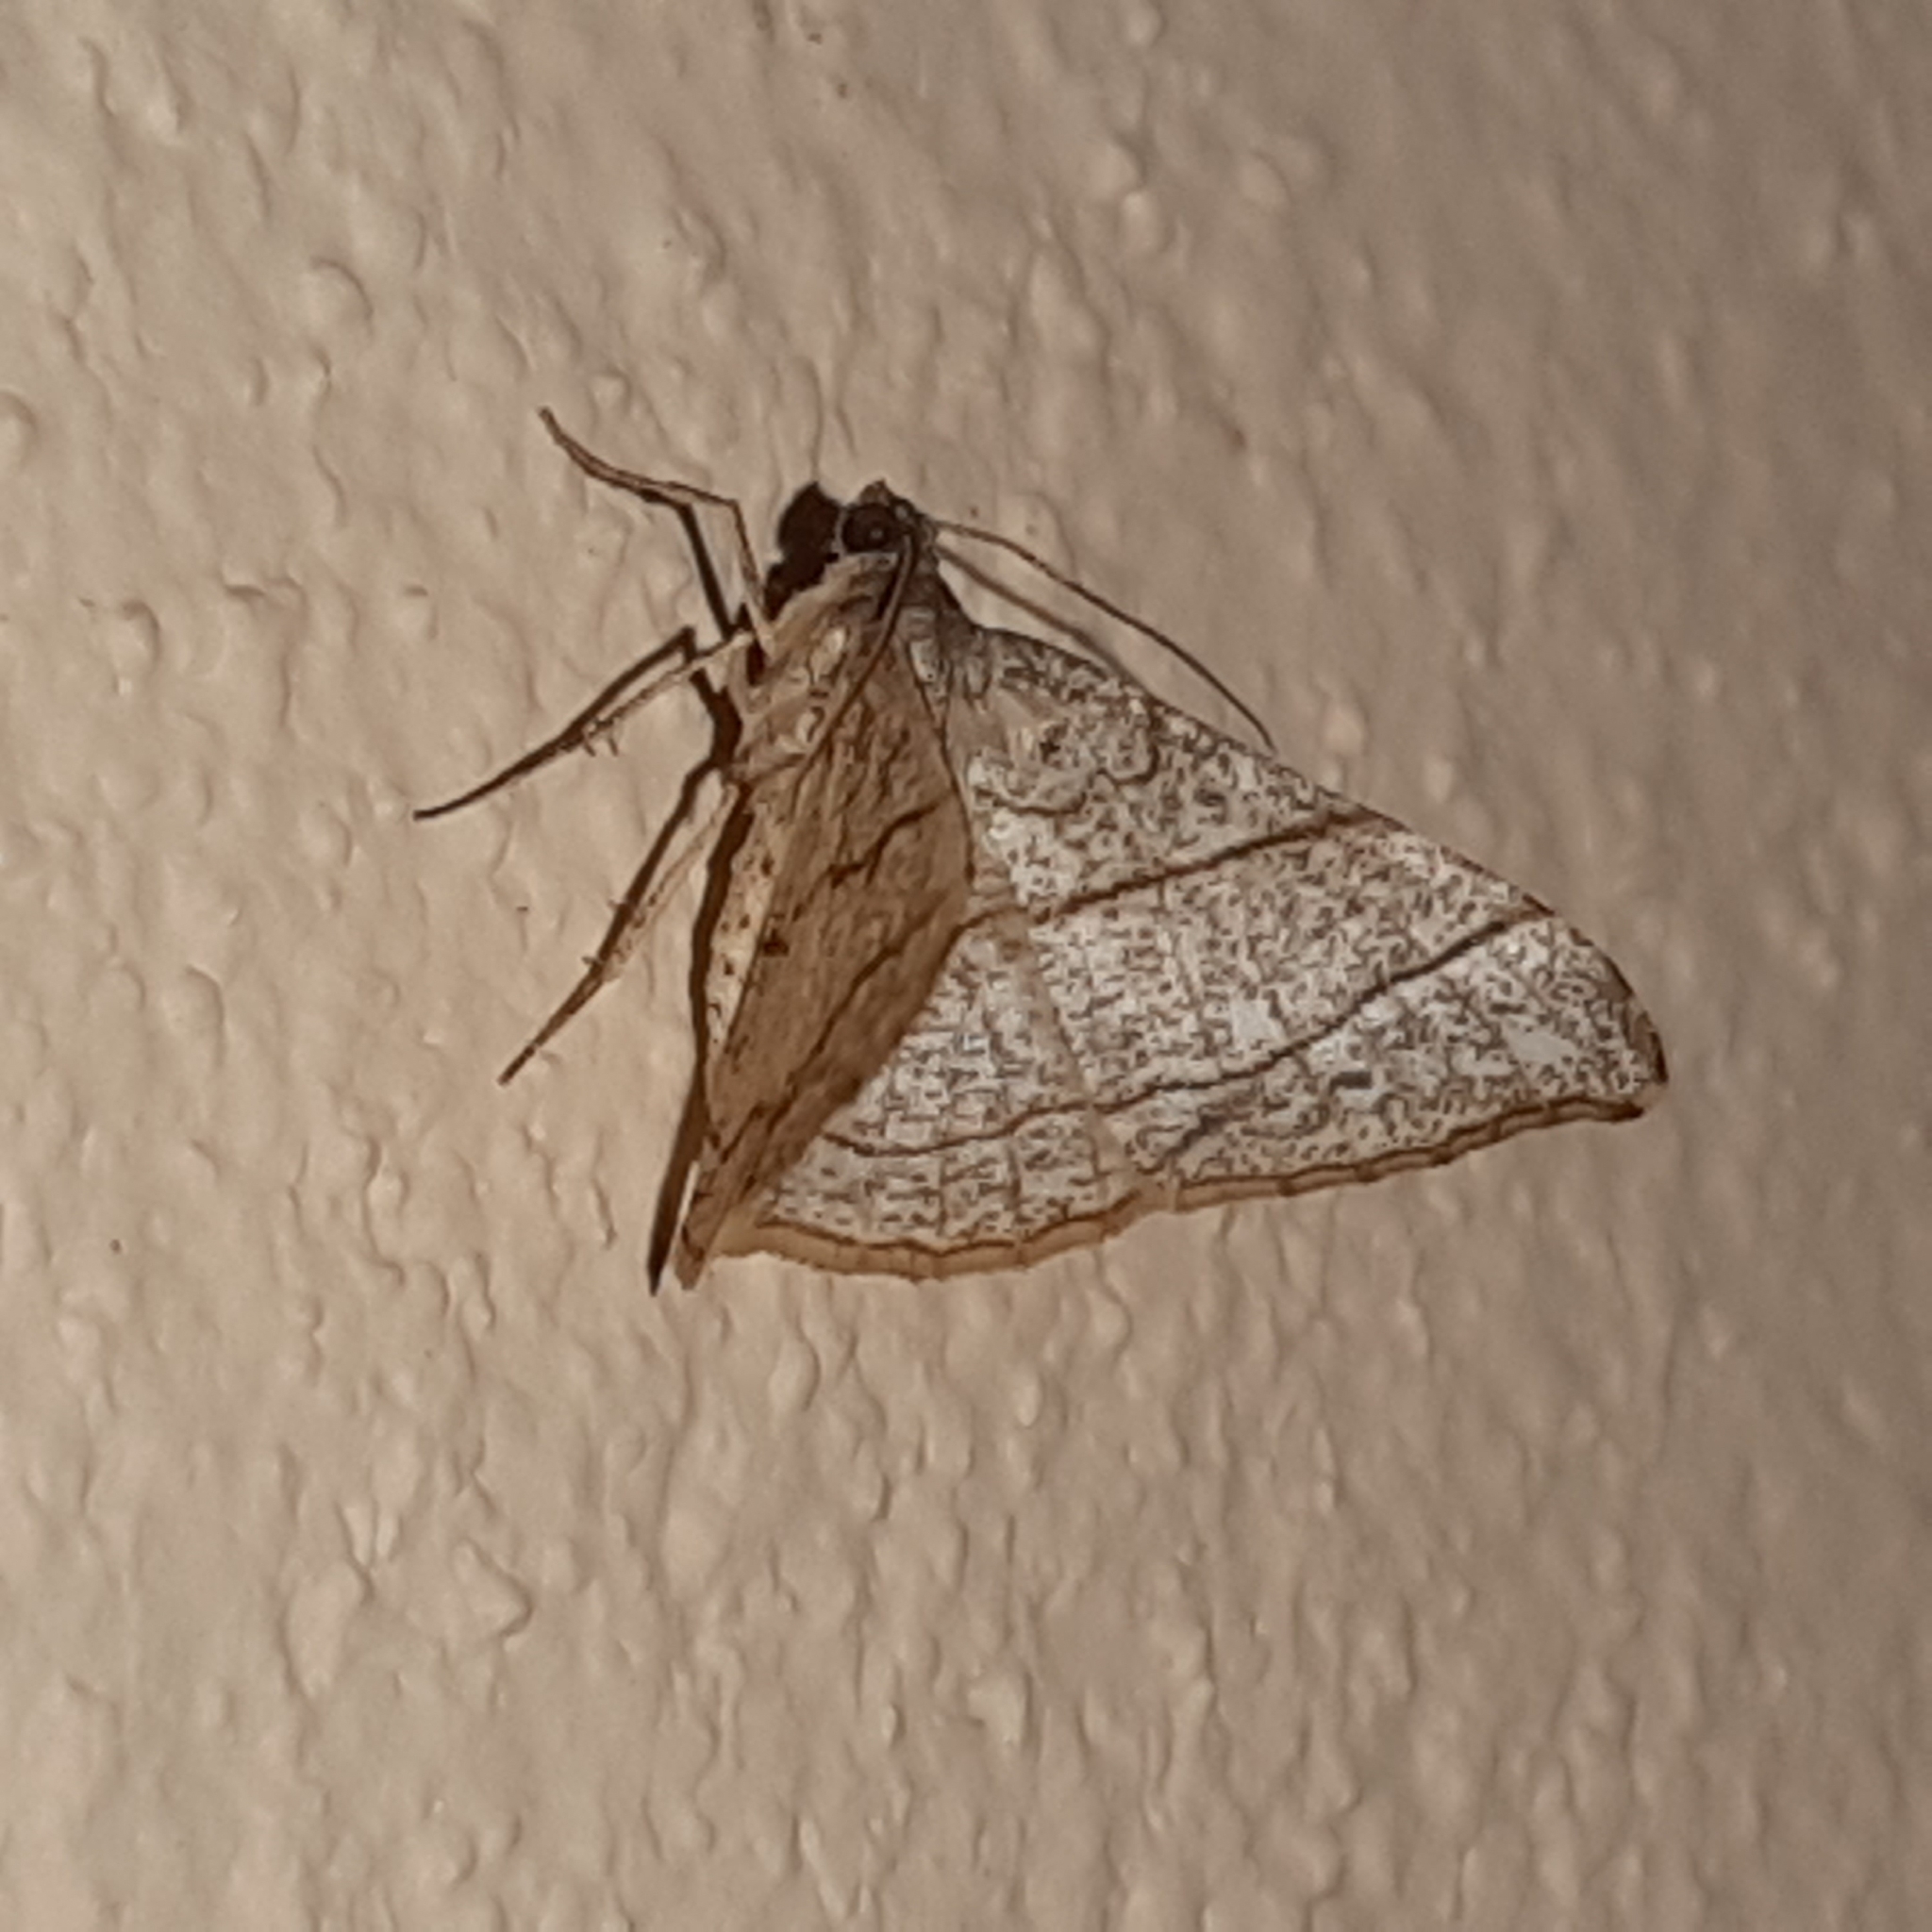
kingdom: Animalia
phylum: Arthropoda
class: Insecta
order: Lepidoptera
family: Geometridae
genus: Semiothisa
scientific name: Semiothisa divergentata
